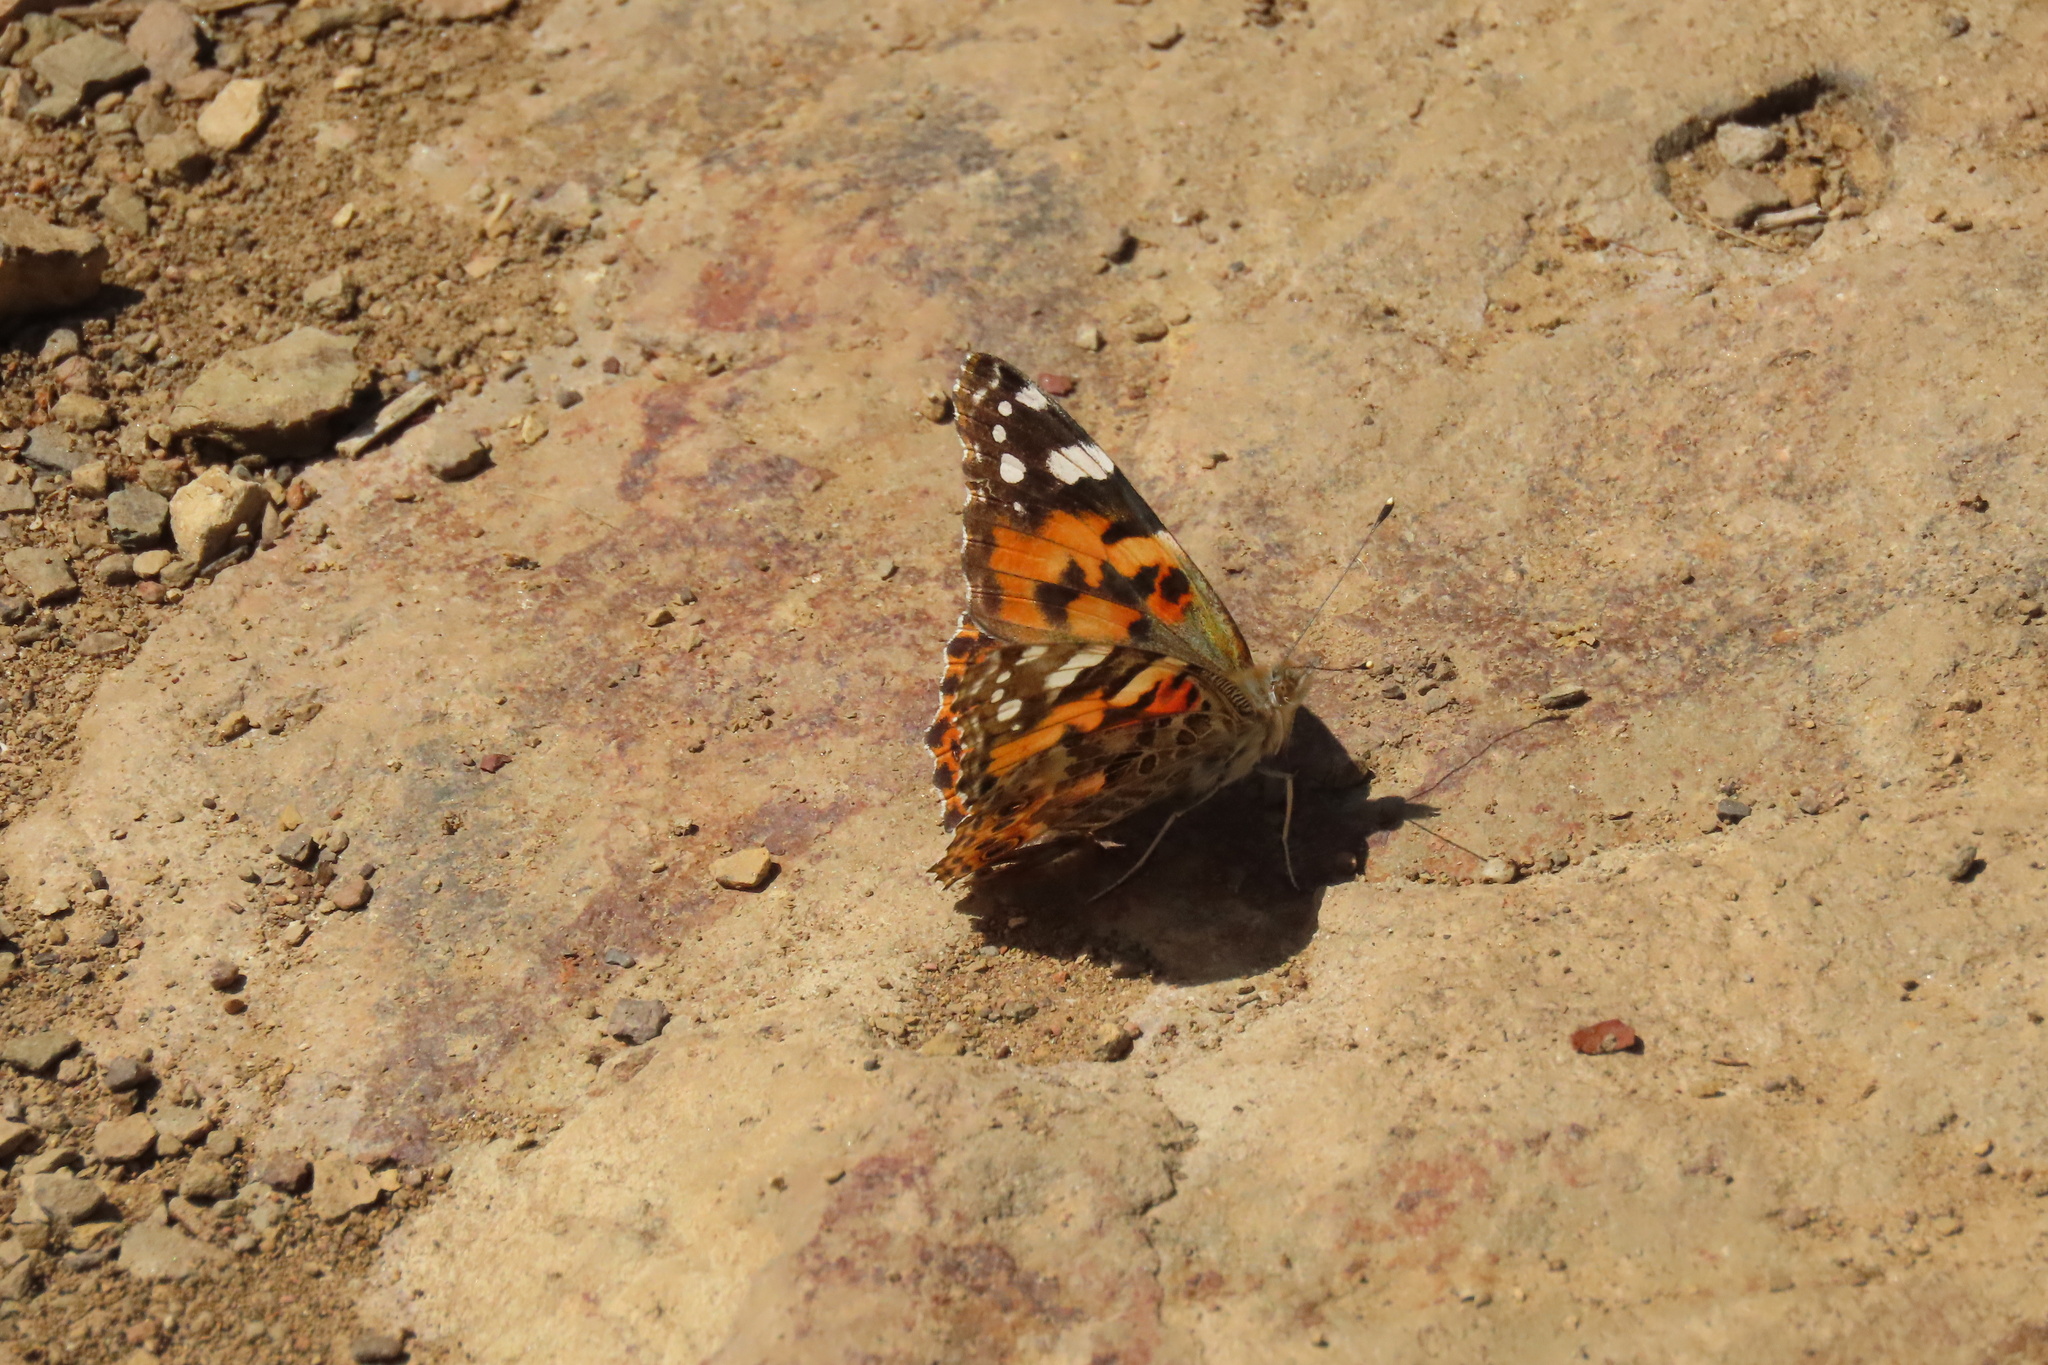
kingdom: Animalia
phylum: Arthropoda
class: Insecta
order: Lepidoptera
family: Nymphalidae
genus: Vanessa
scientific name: Vanessa cardui
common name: Painted lady
